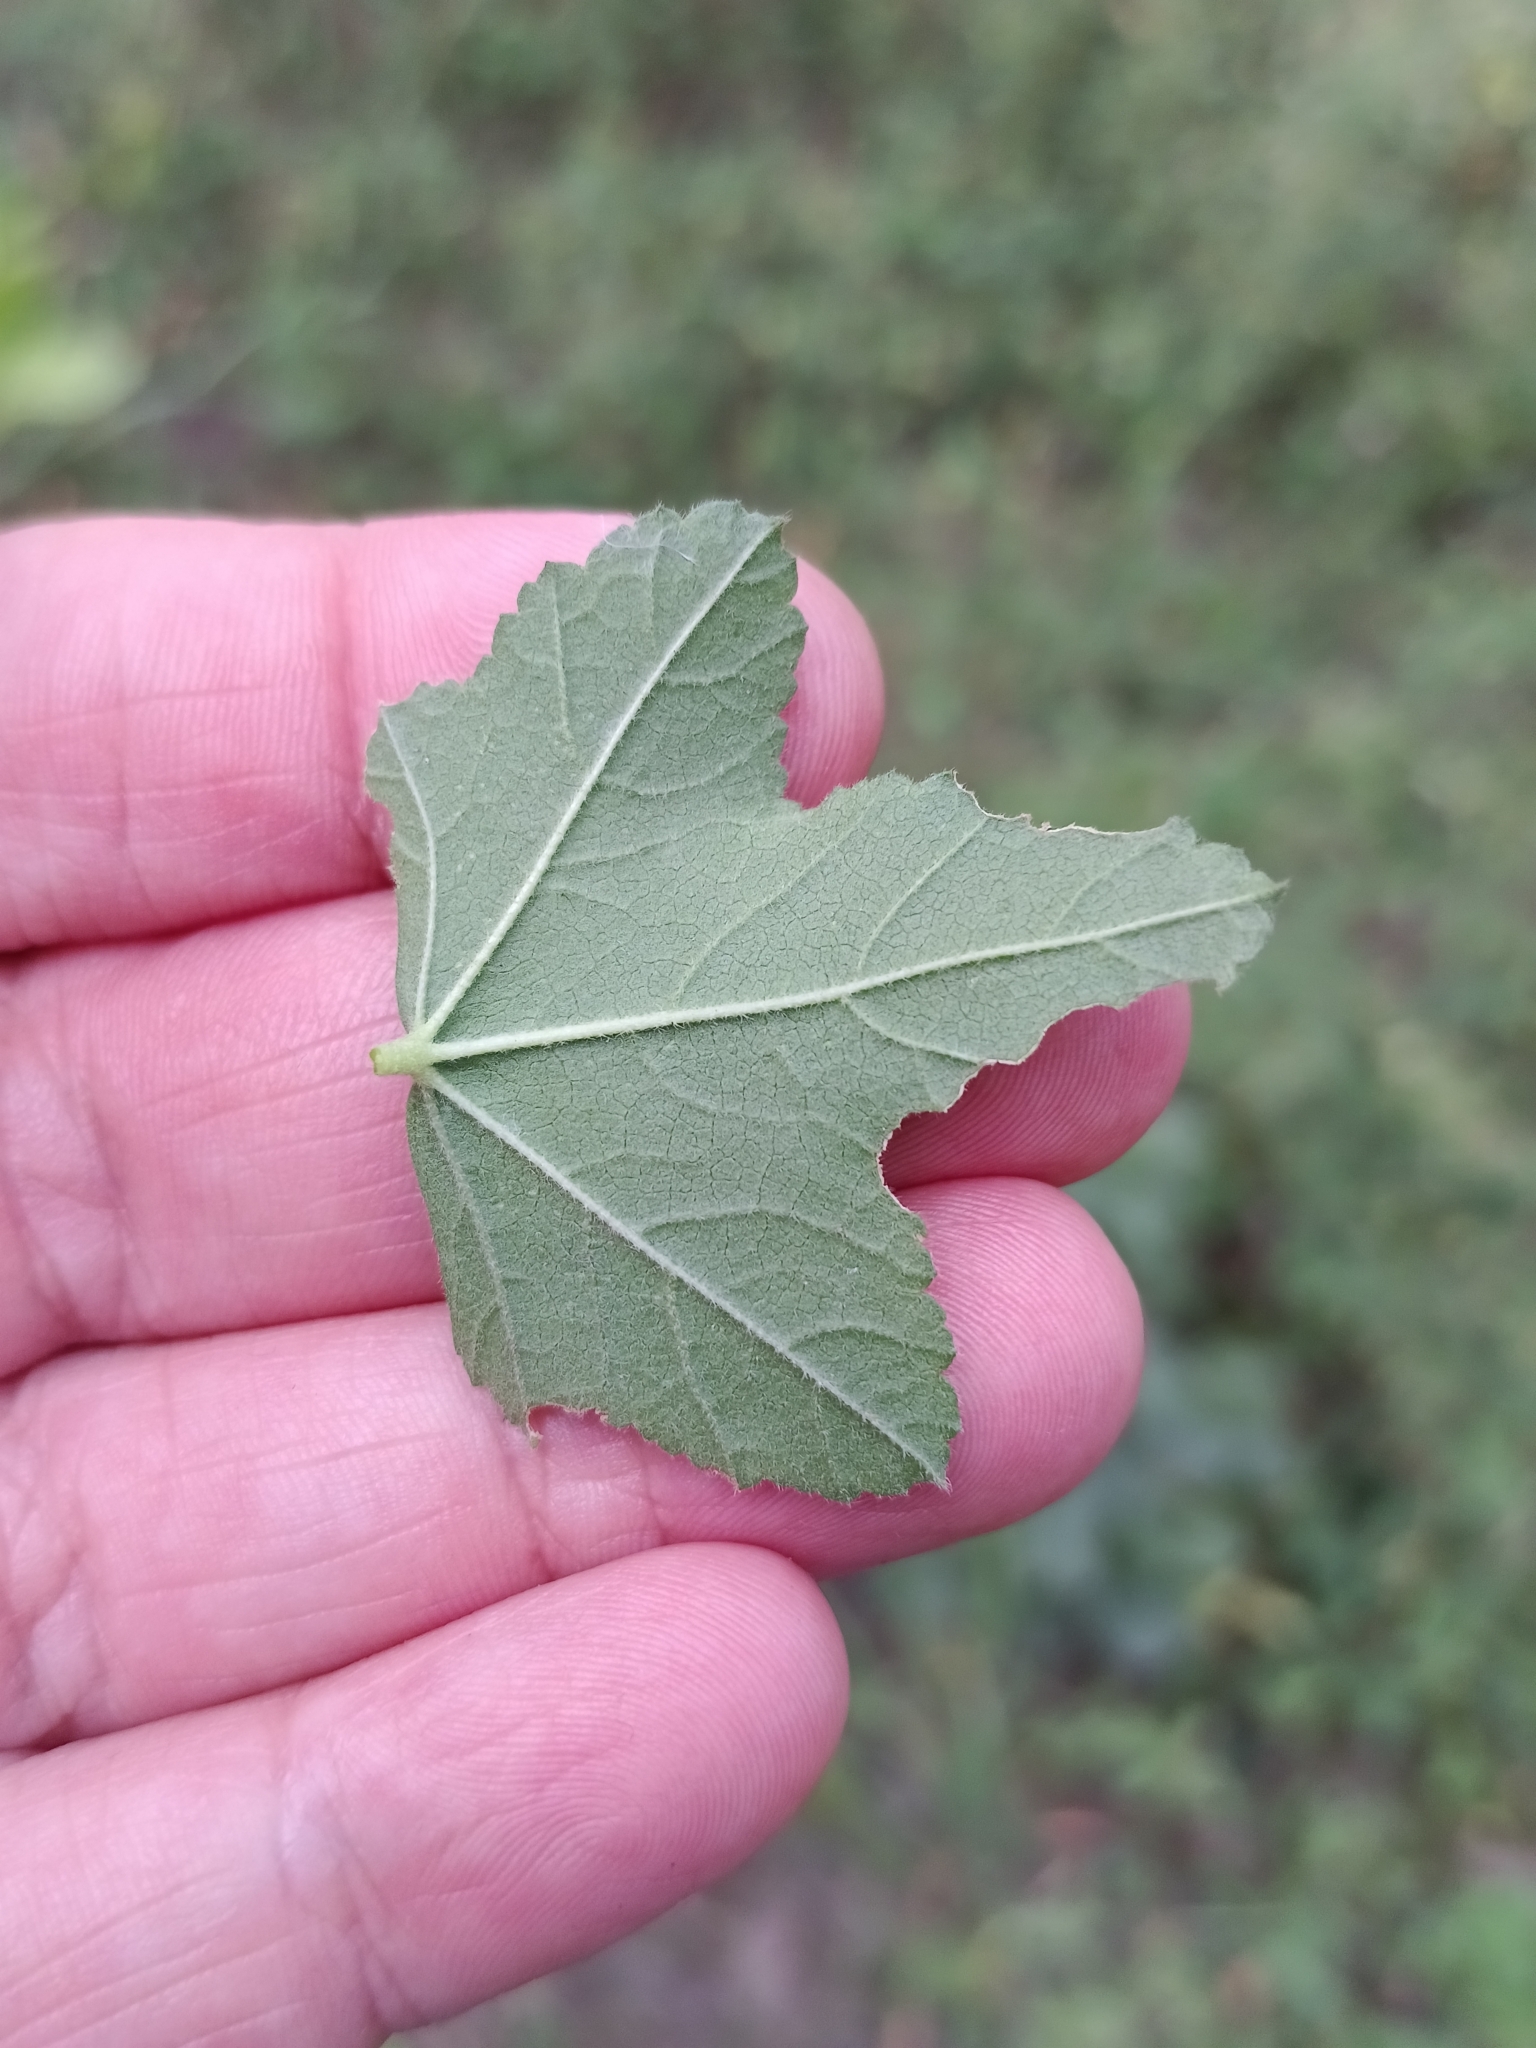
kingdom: Plantae
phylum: Tracheophyta
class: Magnoliopsida
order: Malvales
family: Malvaceae
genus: Malva
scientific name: Malva thuringiaca
